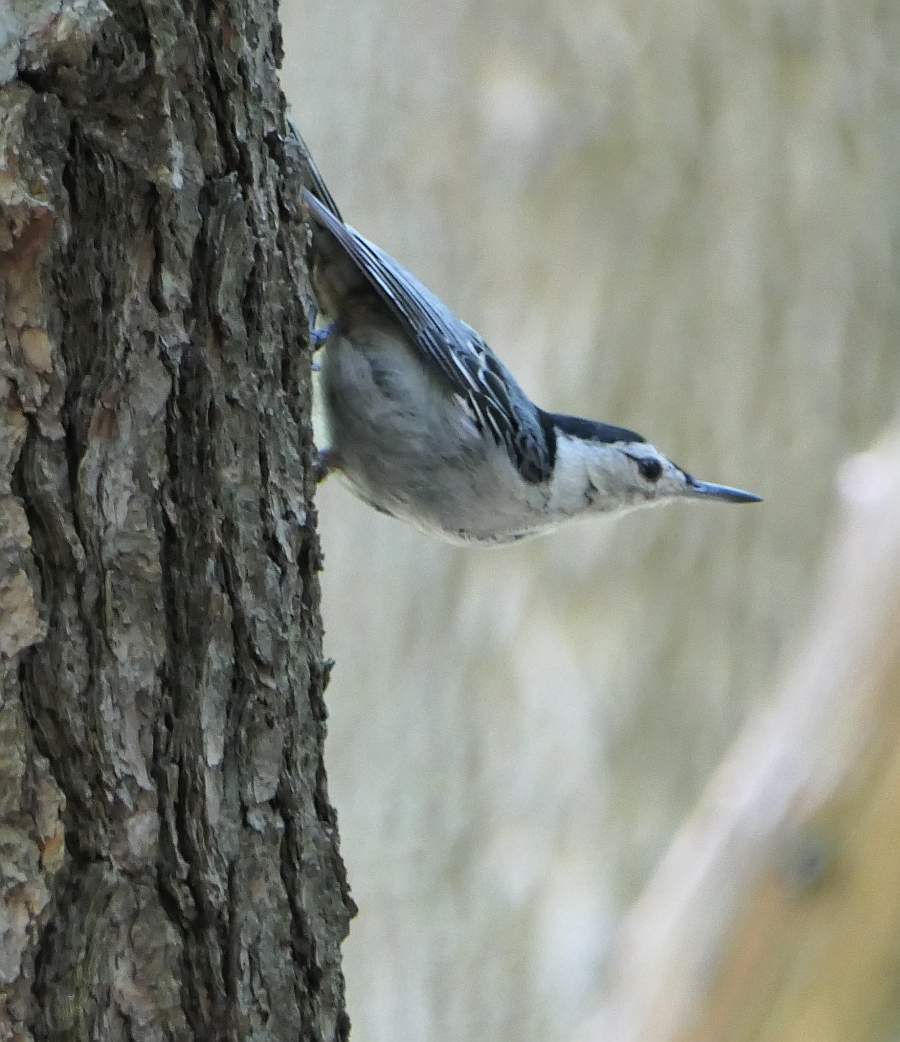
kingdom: Animalia
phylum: Chordata
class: Aves
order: Passeriformes
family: Sittidae
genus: Sitta
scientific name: Sitta carolinensis
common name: White-breasted nuthatch
